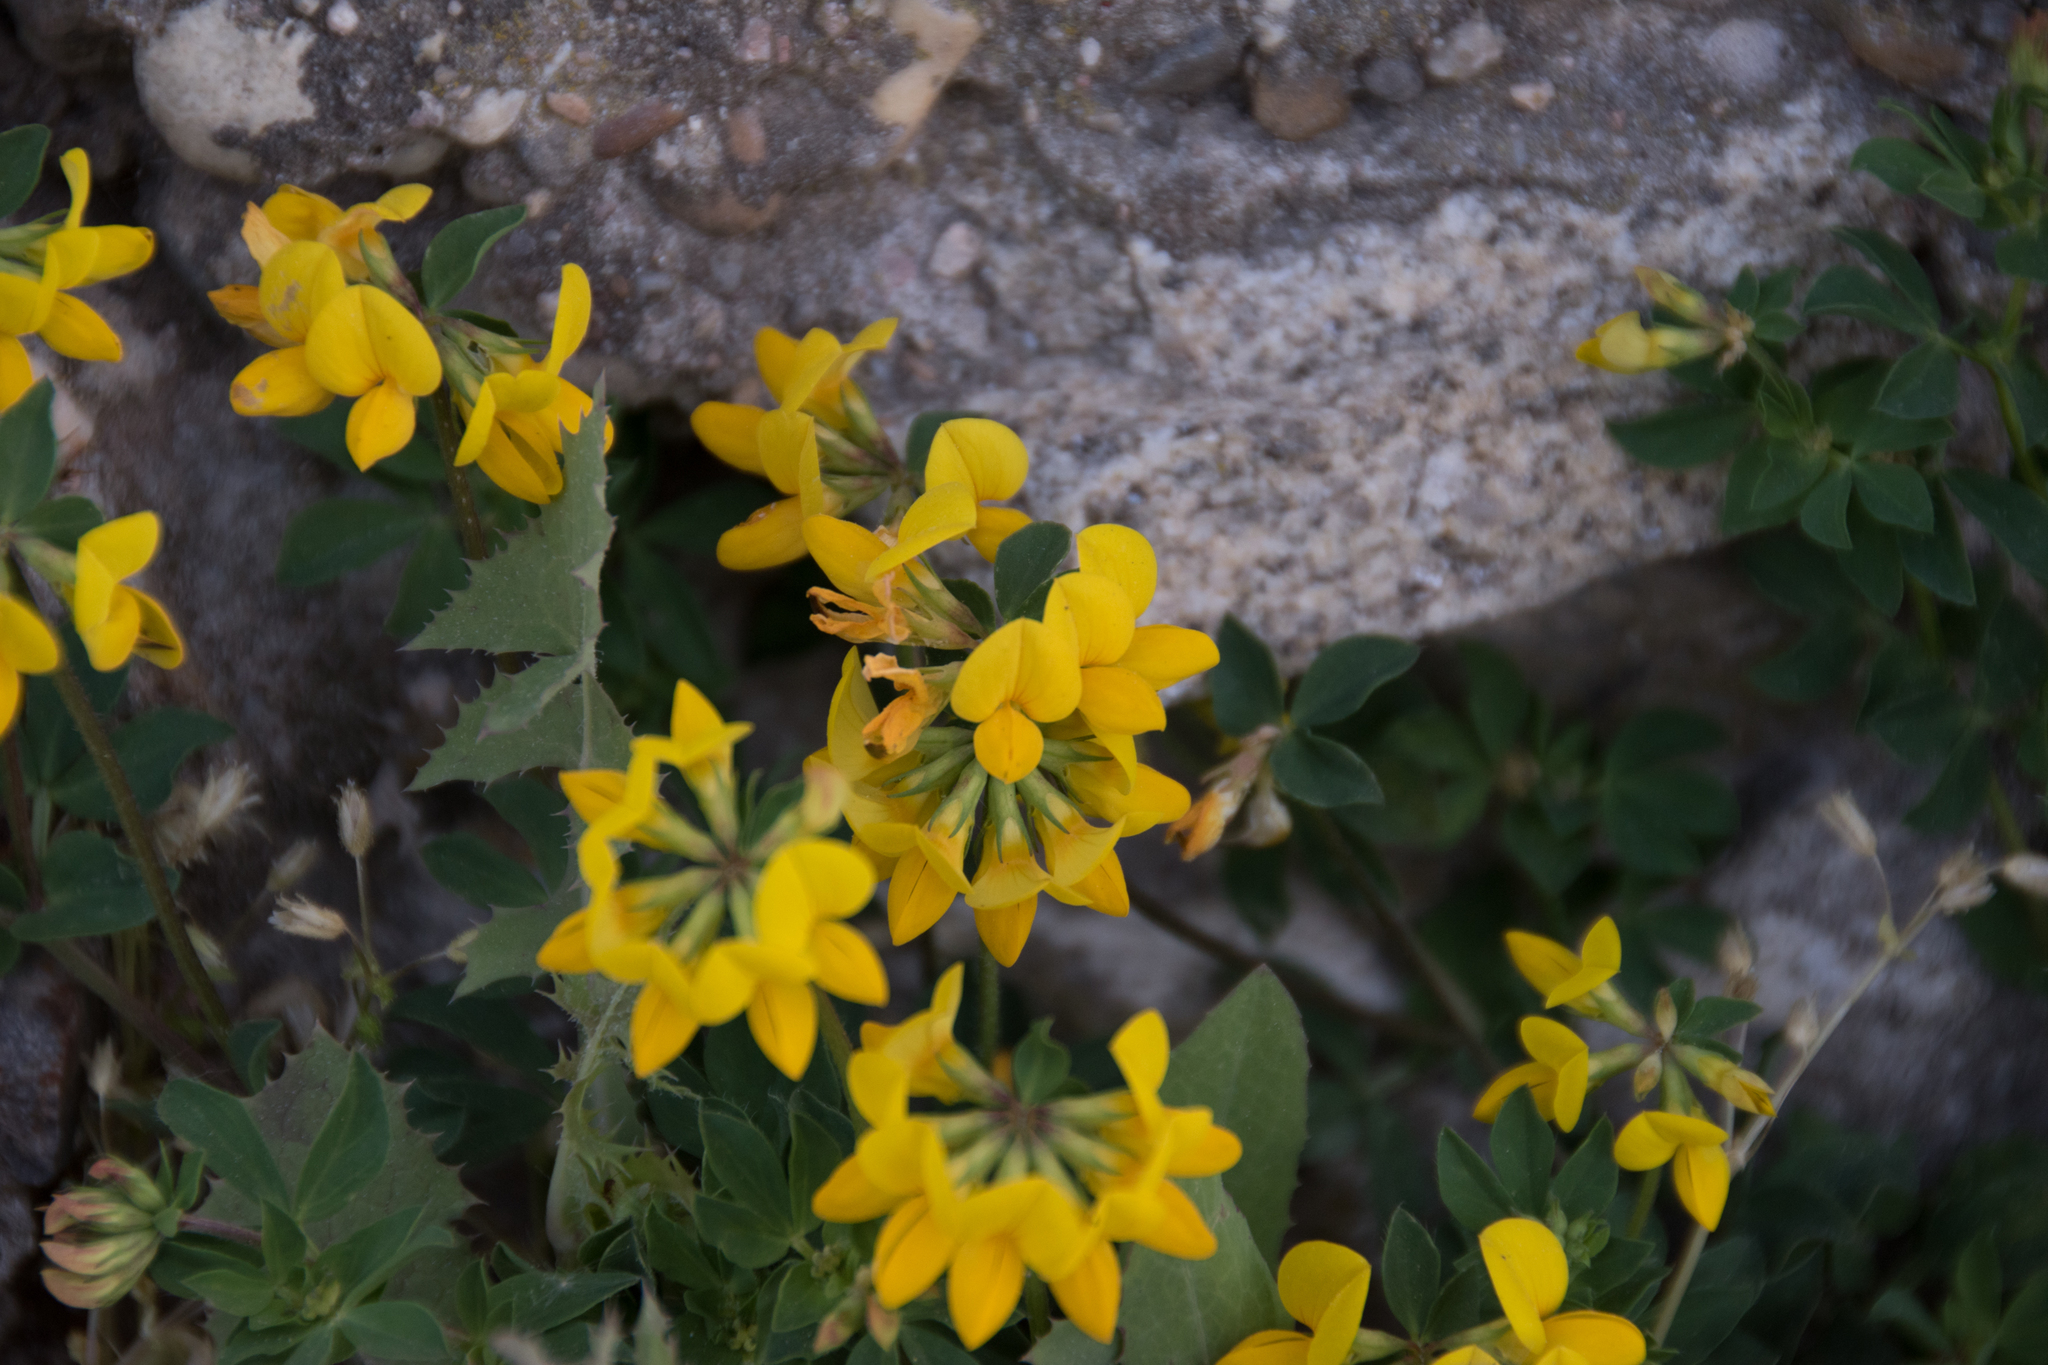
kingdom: Plantae
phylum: Tracheophyta
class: Magnoliopsida
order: Fabales
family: Fabaceae
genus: Lotus
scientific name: Lotus corniculatus
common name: Common bird's-foot-trefoil
